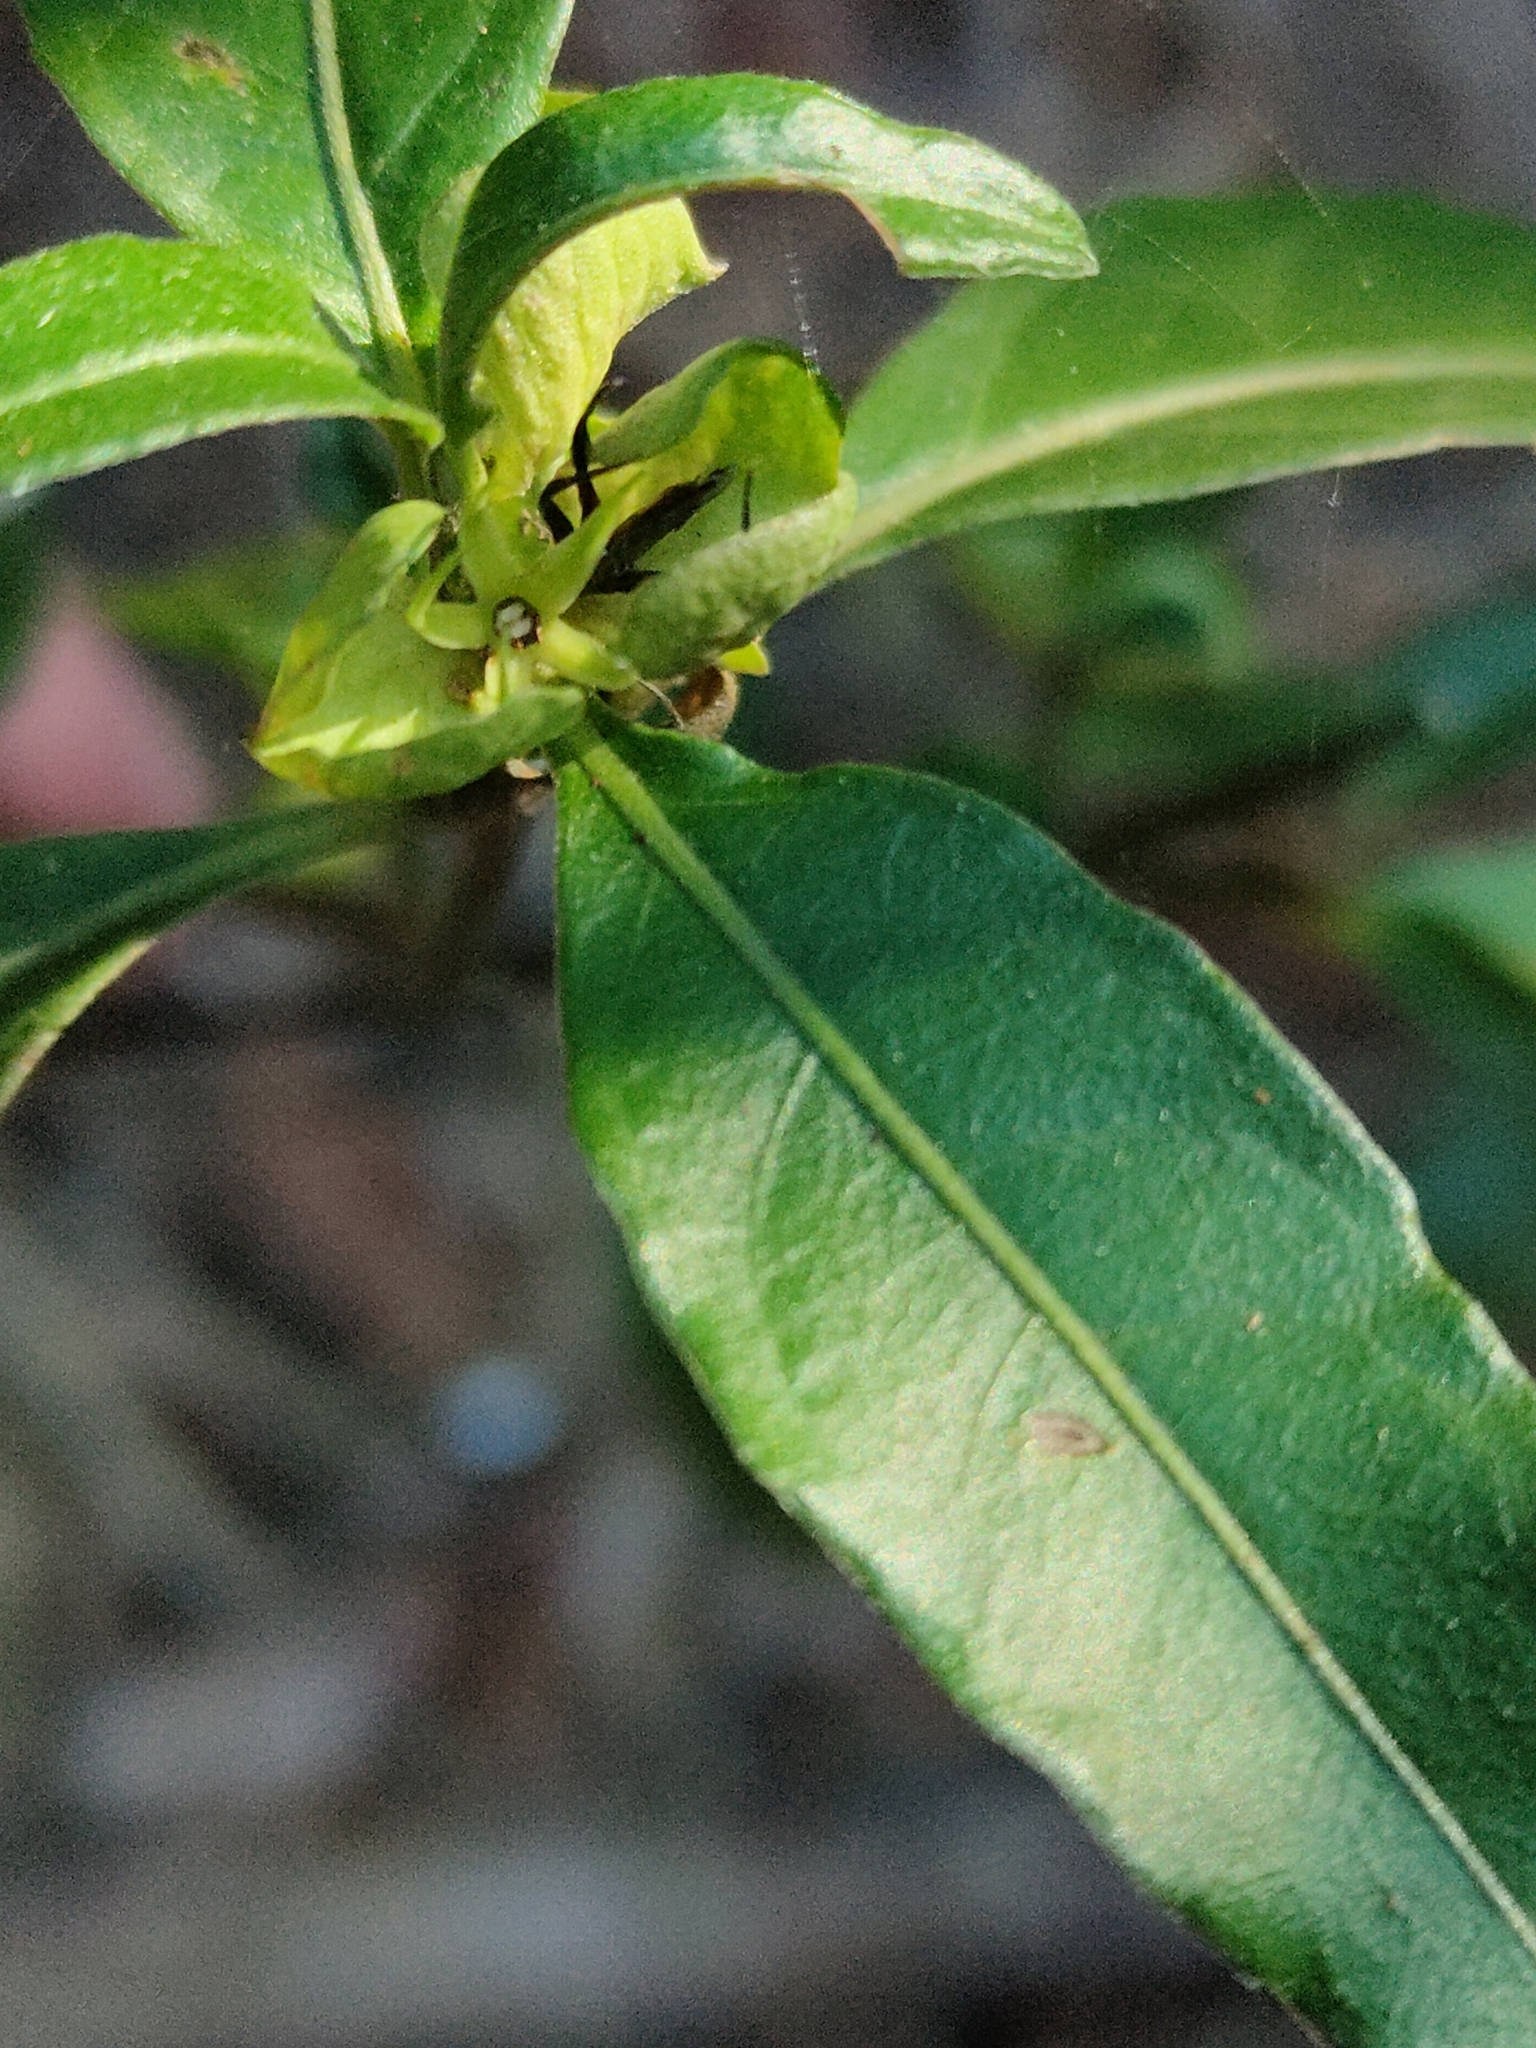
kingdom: Plantae
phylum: Tracheophyta
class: Magnoliopsida
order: Lamiales
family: Acanthaceae
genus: Justicia
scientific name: Justicia hygrophiloides
